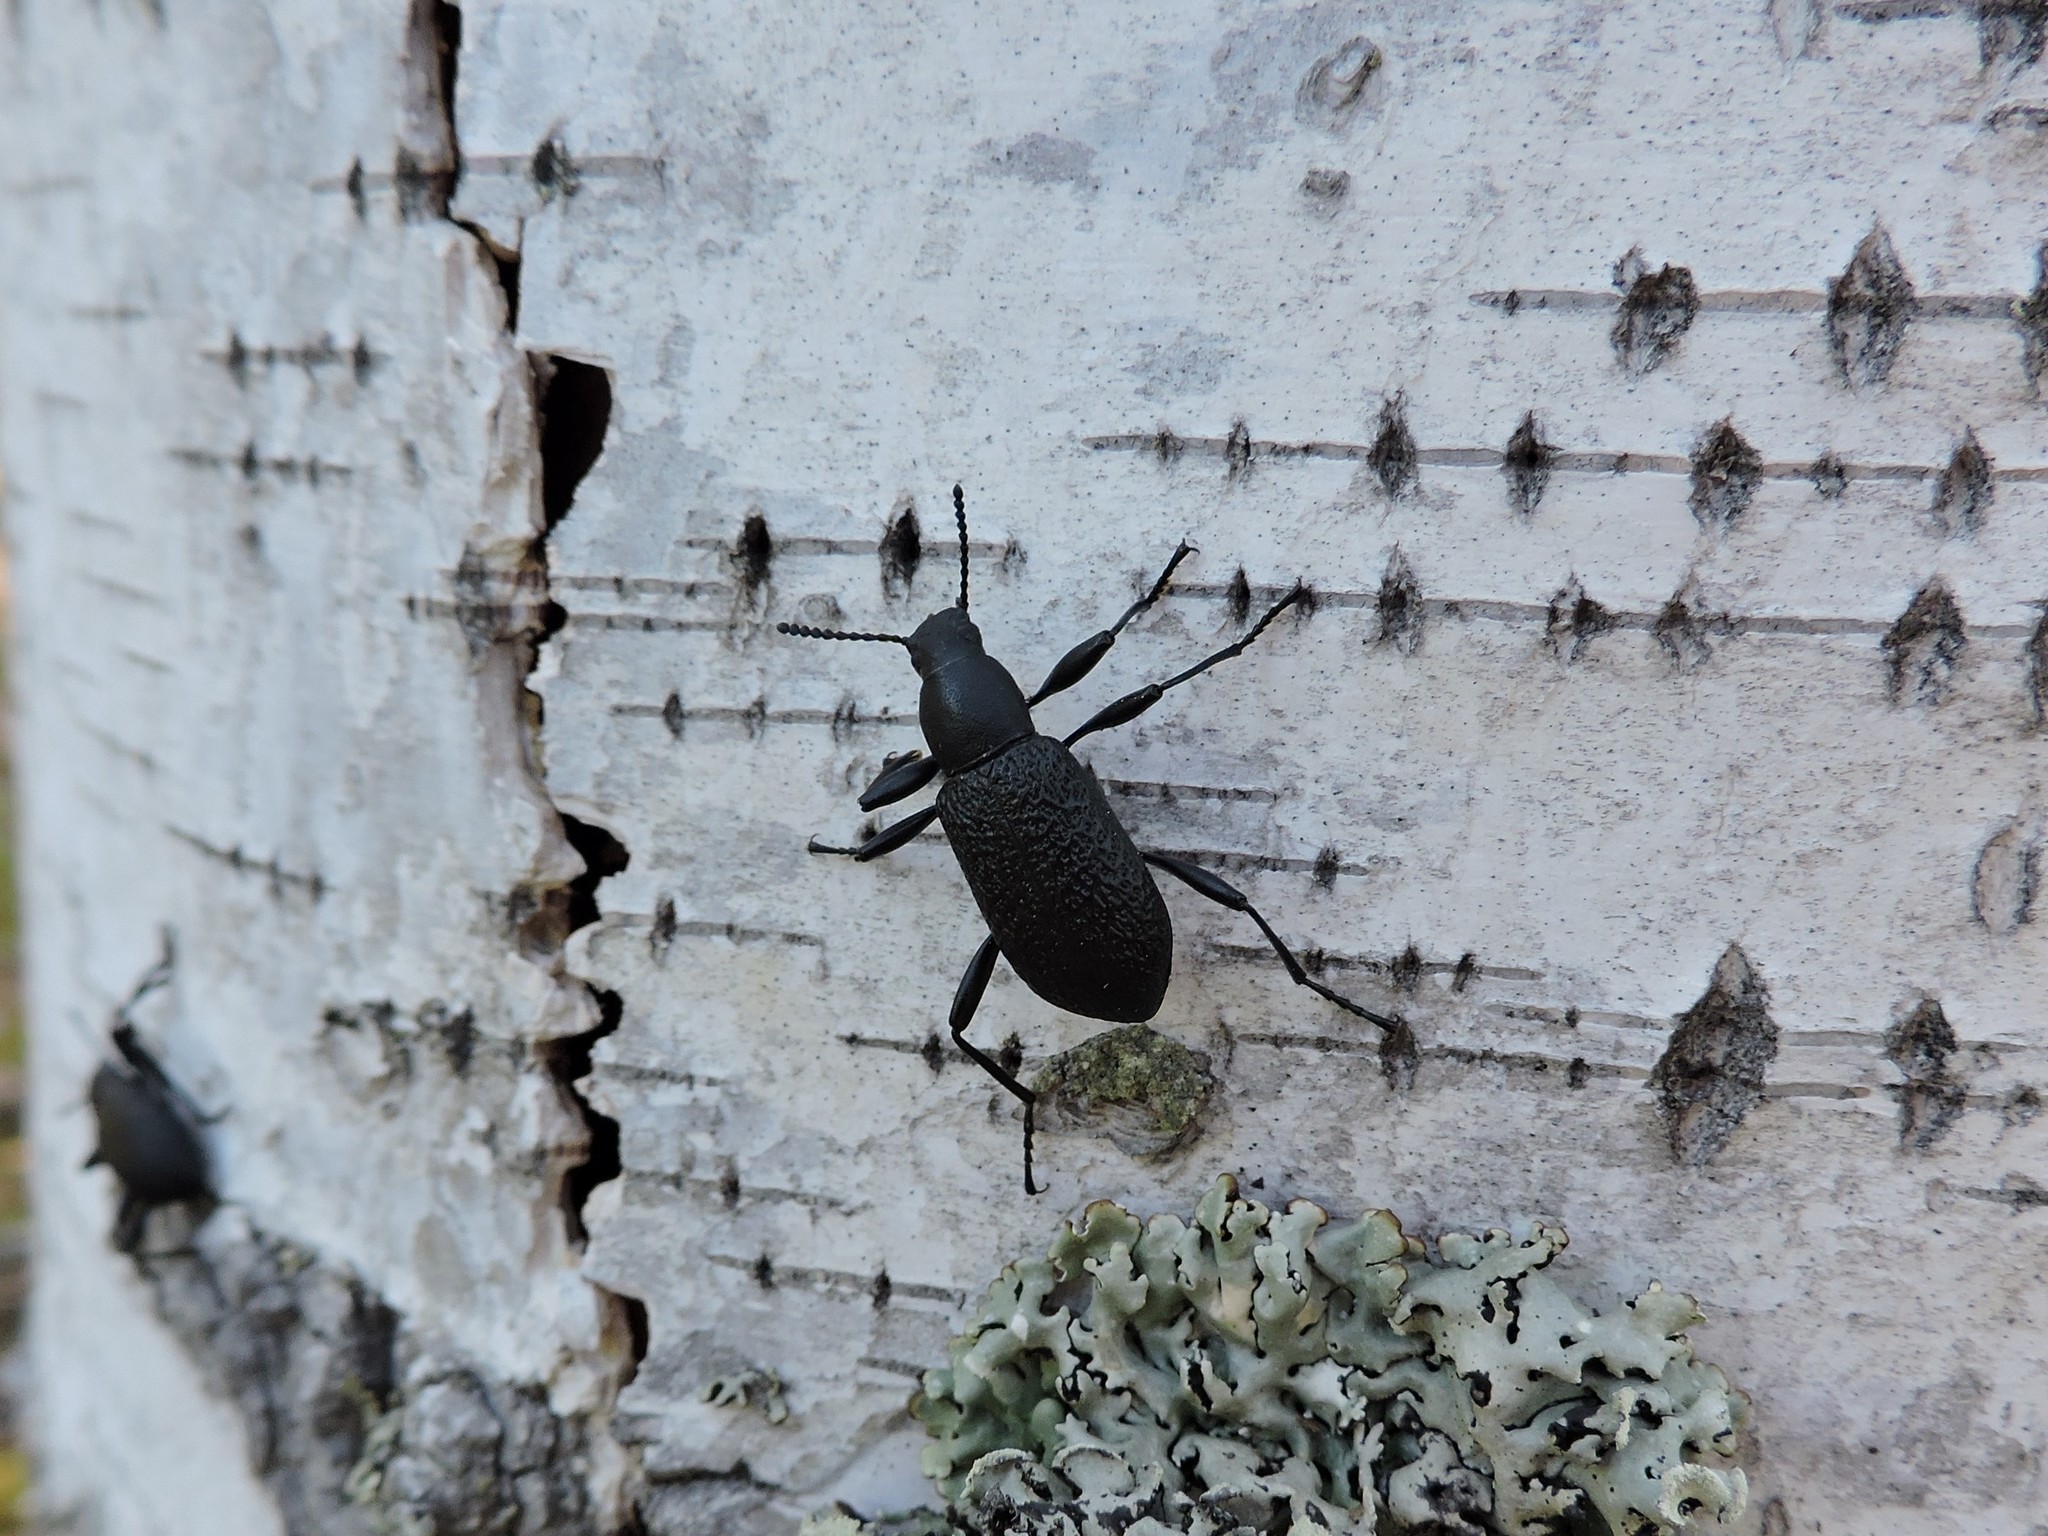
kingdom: Animalia
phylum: Arthropoda
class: Insecta
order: Coleoptera
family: Tenebrionidae
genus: Upis
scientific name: Upis ceramboides
